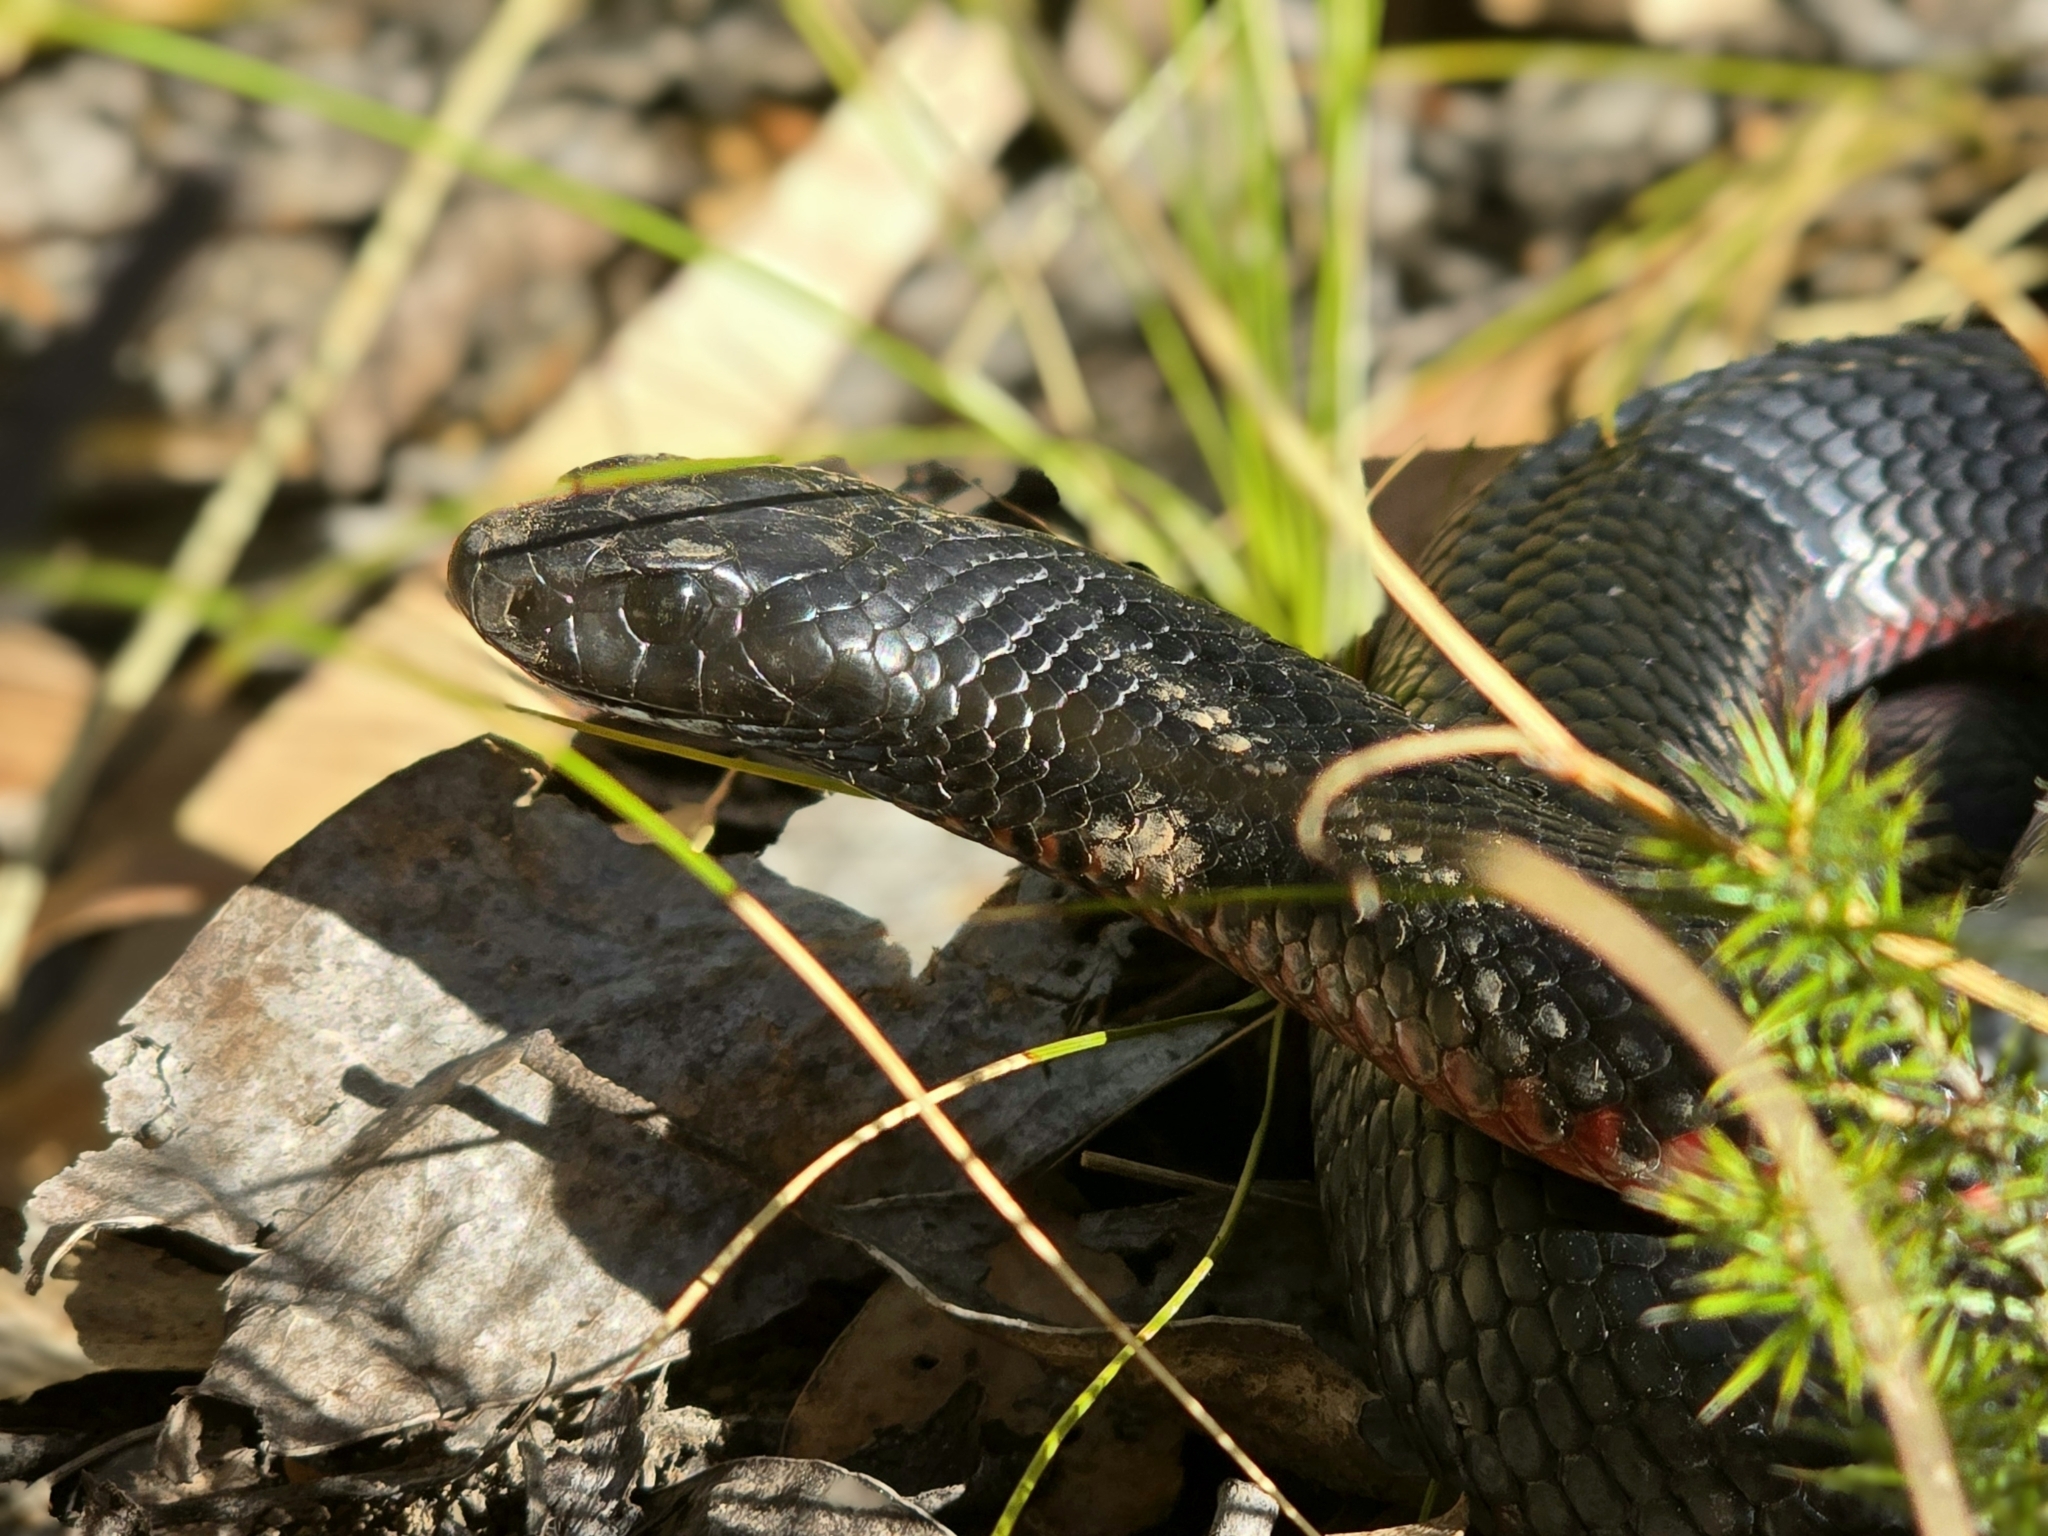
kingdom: Animalia
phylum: Chordata
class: Squamata
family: Elapidae
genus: Pseudechis
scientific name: Pseudechis porphyriacus
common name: Australian black snake
